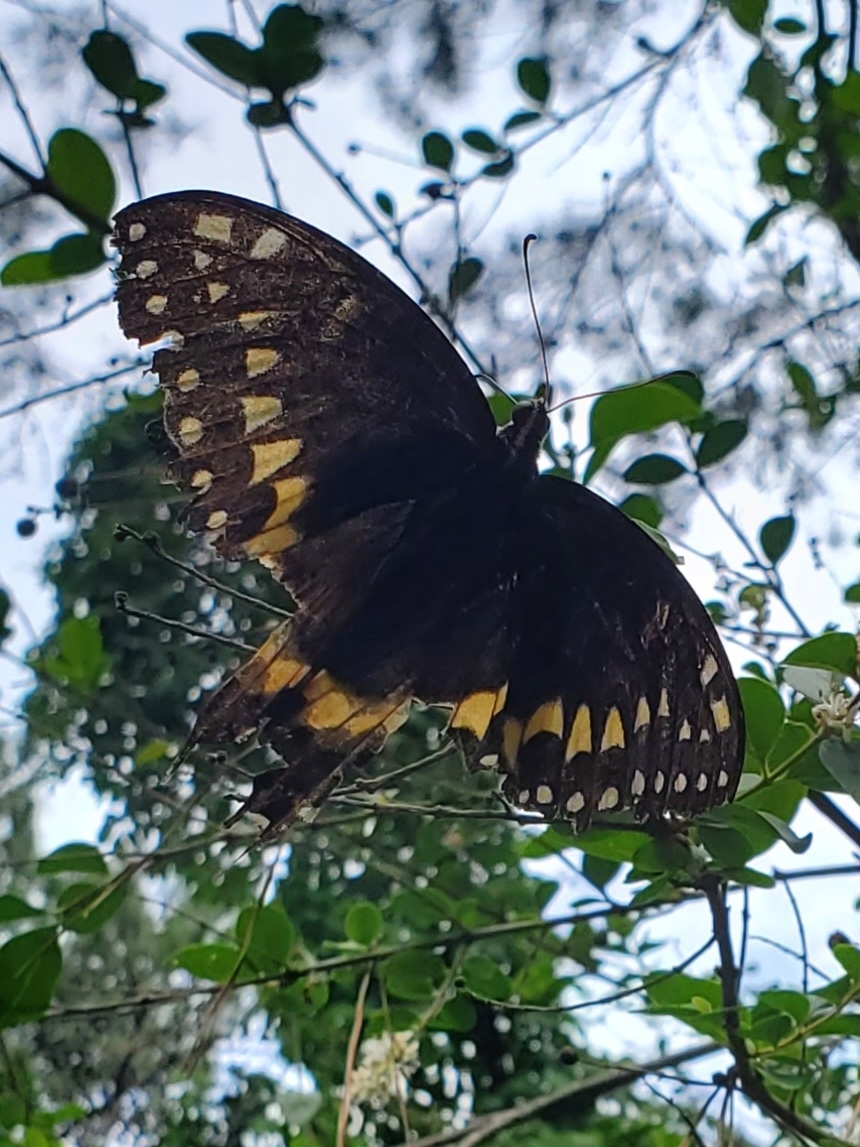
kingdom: Animalia
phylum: Arthropoda
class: Insecta
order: Lepidoptera
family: Papilionidae
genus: Papilio
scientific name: Papilio palamedes
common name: Palamedes swallowtail
